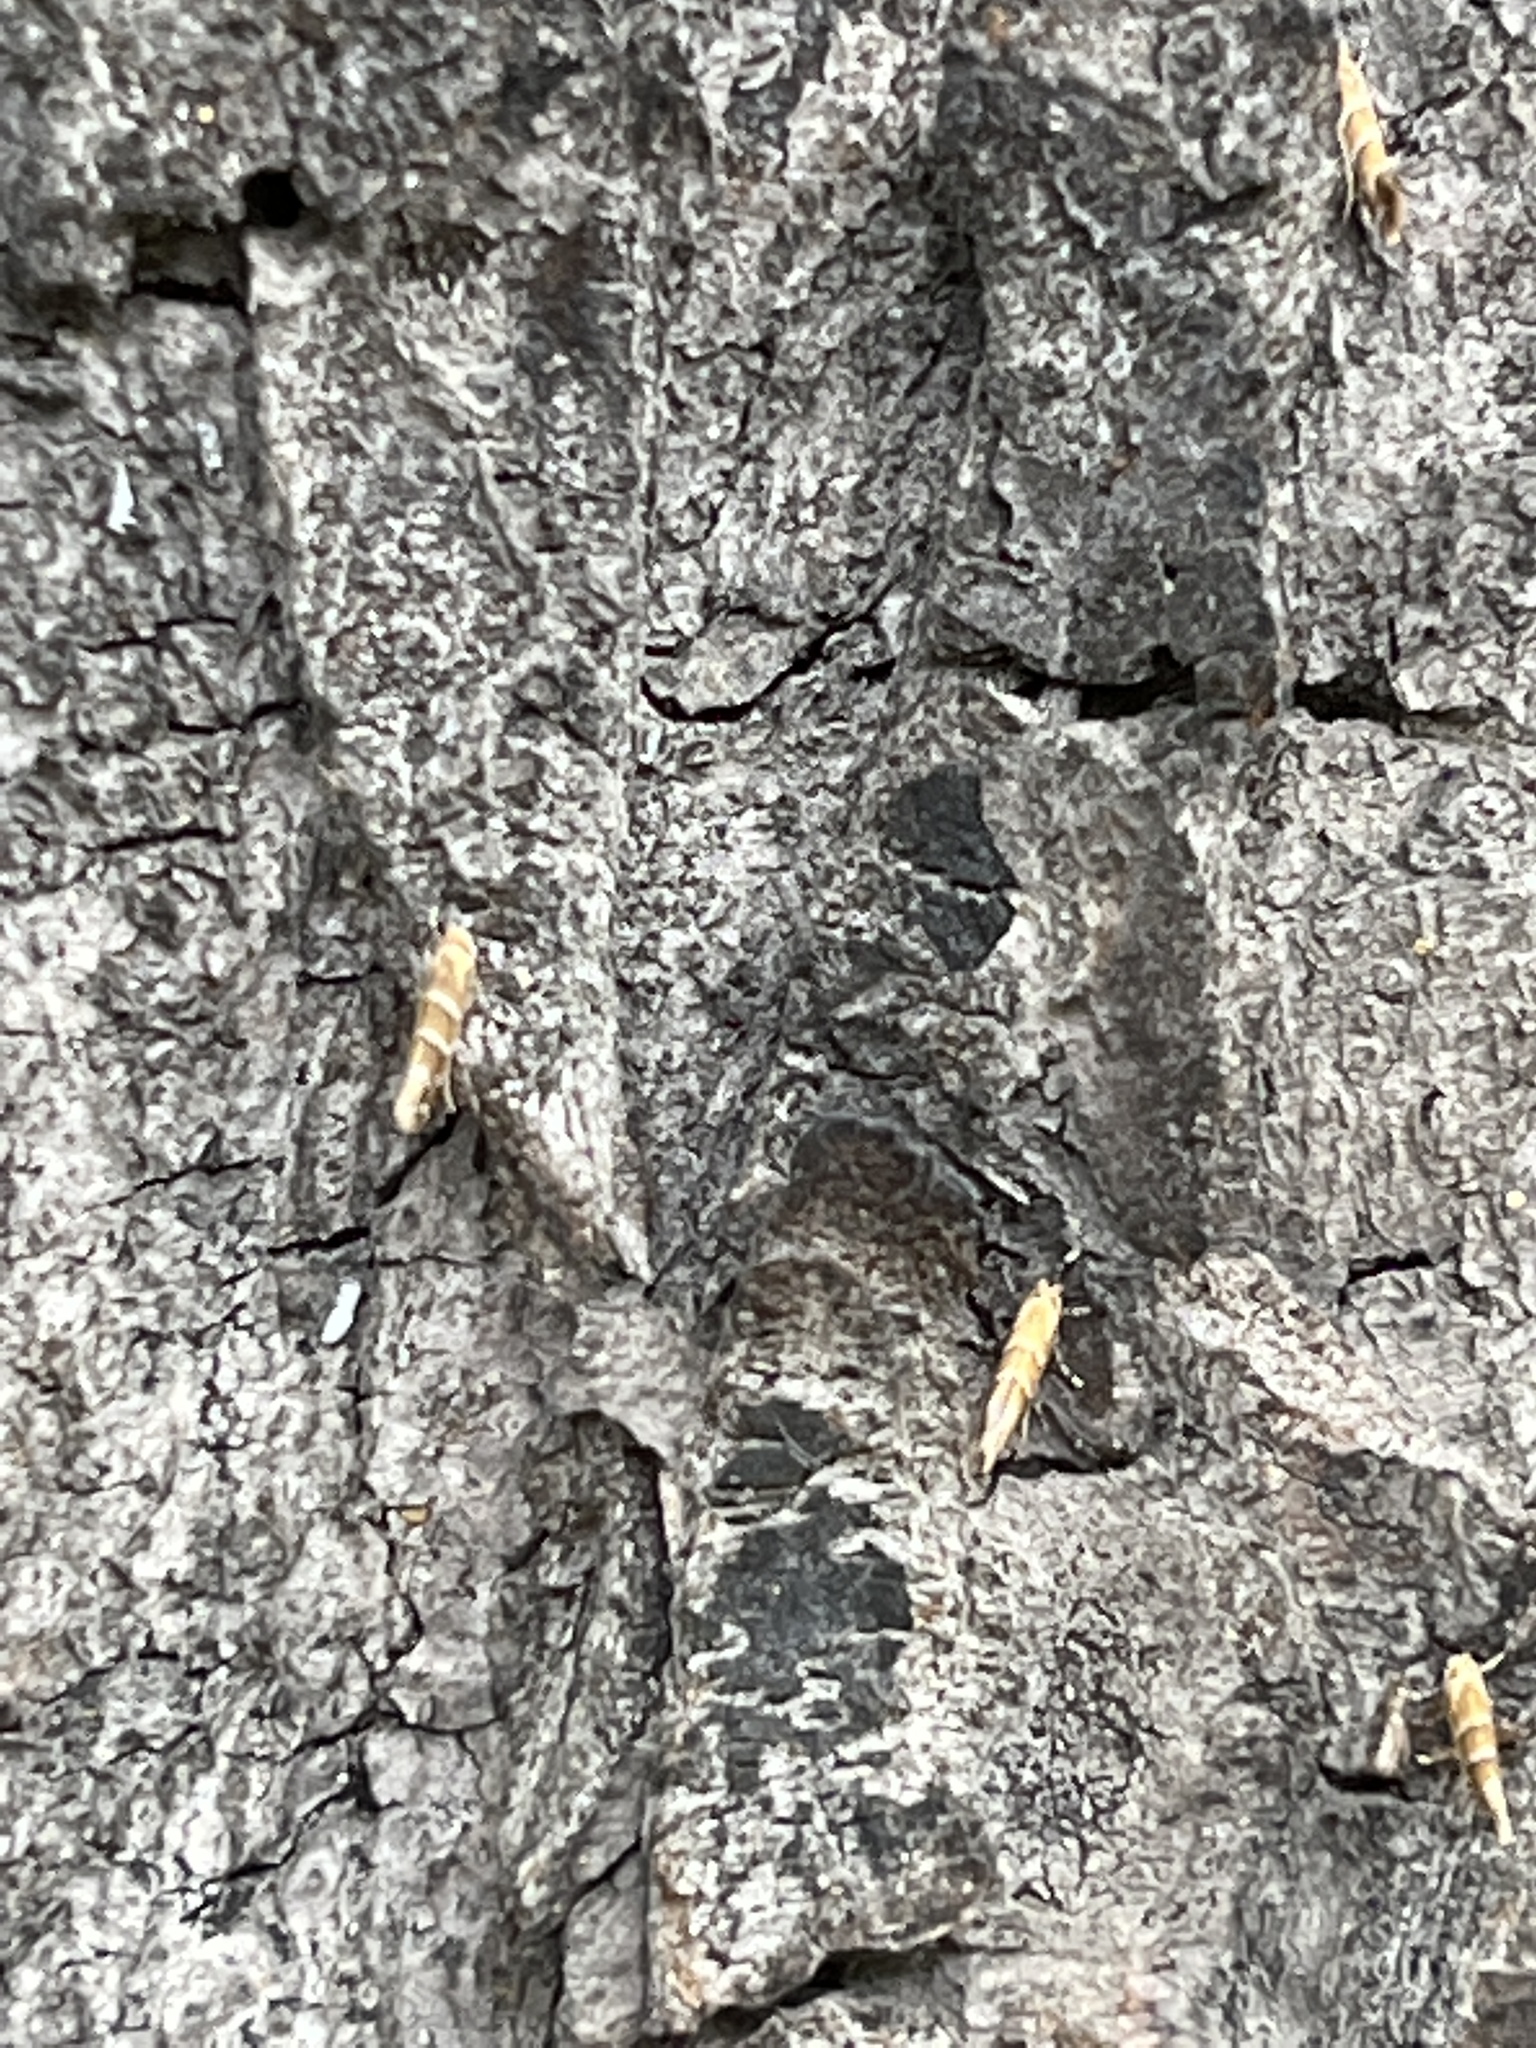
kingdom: Animalia
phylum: Arthropoda
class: Insecta
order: Lepidoptera
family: Gracillariidae
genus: Cameraria
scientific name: Cameraria ohridella
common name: Horse-chestnut leaf-miner
